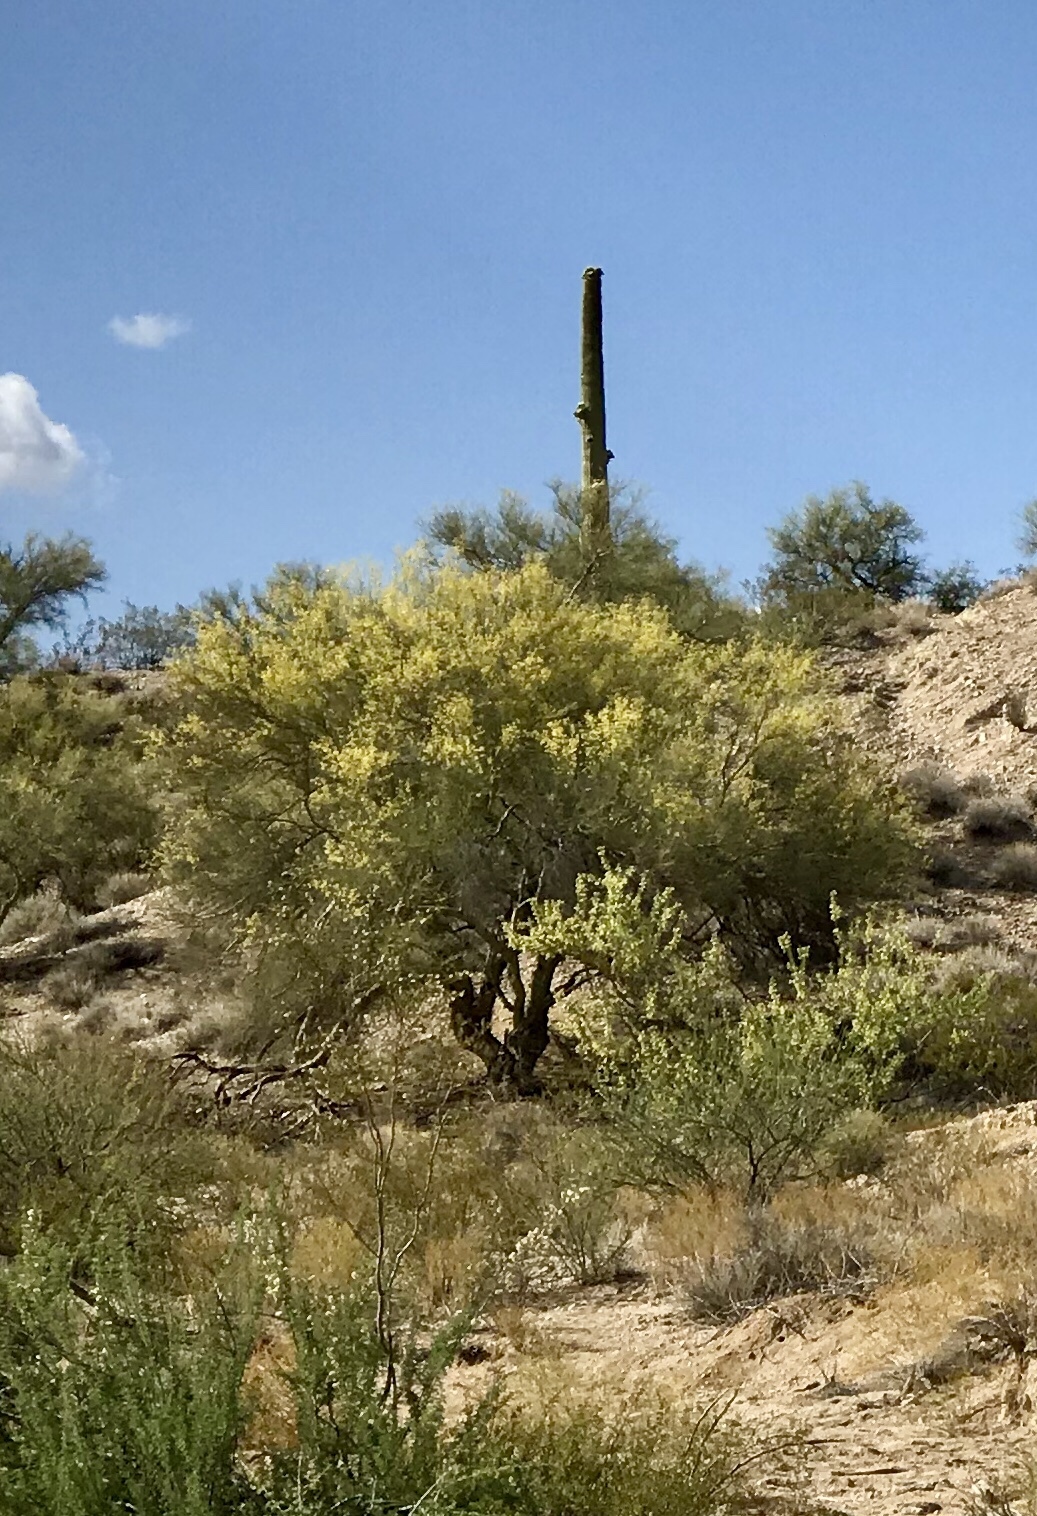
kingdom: Plantae
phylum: Tracheophyta
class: Magnoliopsida
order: Fabales
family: Fabaceae
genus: Parkinsonia
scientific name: Parkinsonia microphylla
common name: Yellow paloverde
